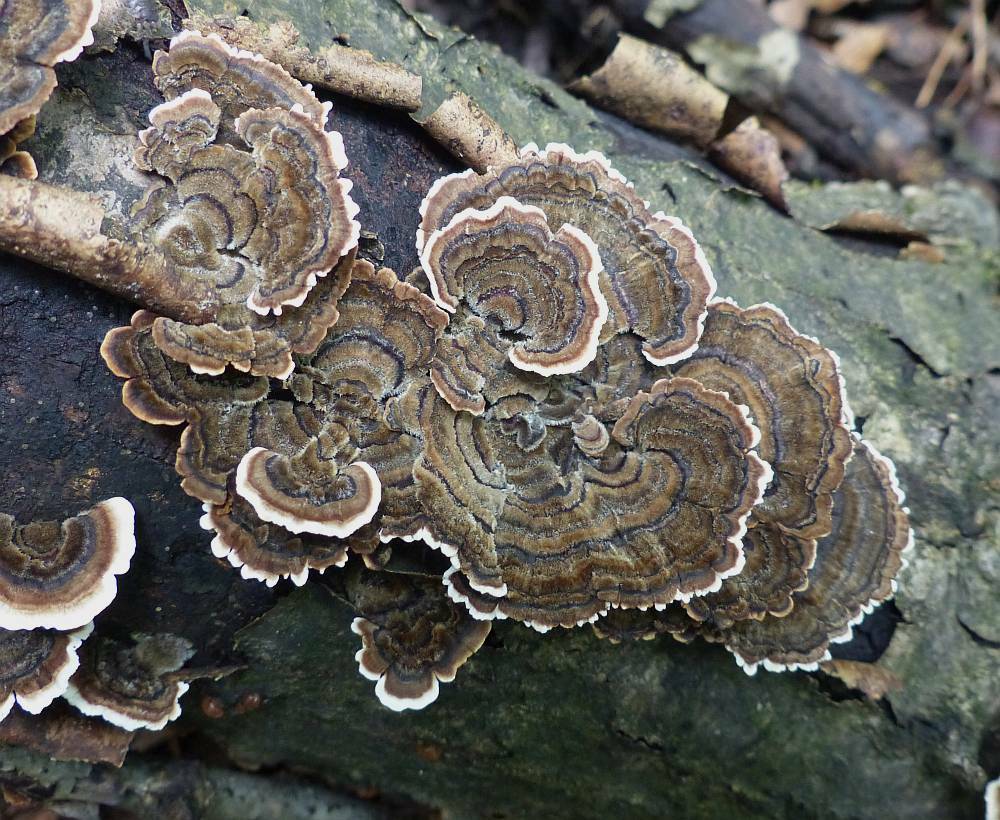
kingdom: Fungi
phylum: Basidiomycota
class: Agaricomycetes
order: Polyporales
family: Polyporaceae
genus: Trametes
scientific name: Trametes versicolor
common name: Turkeytail
